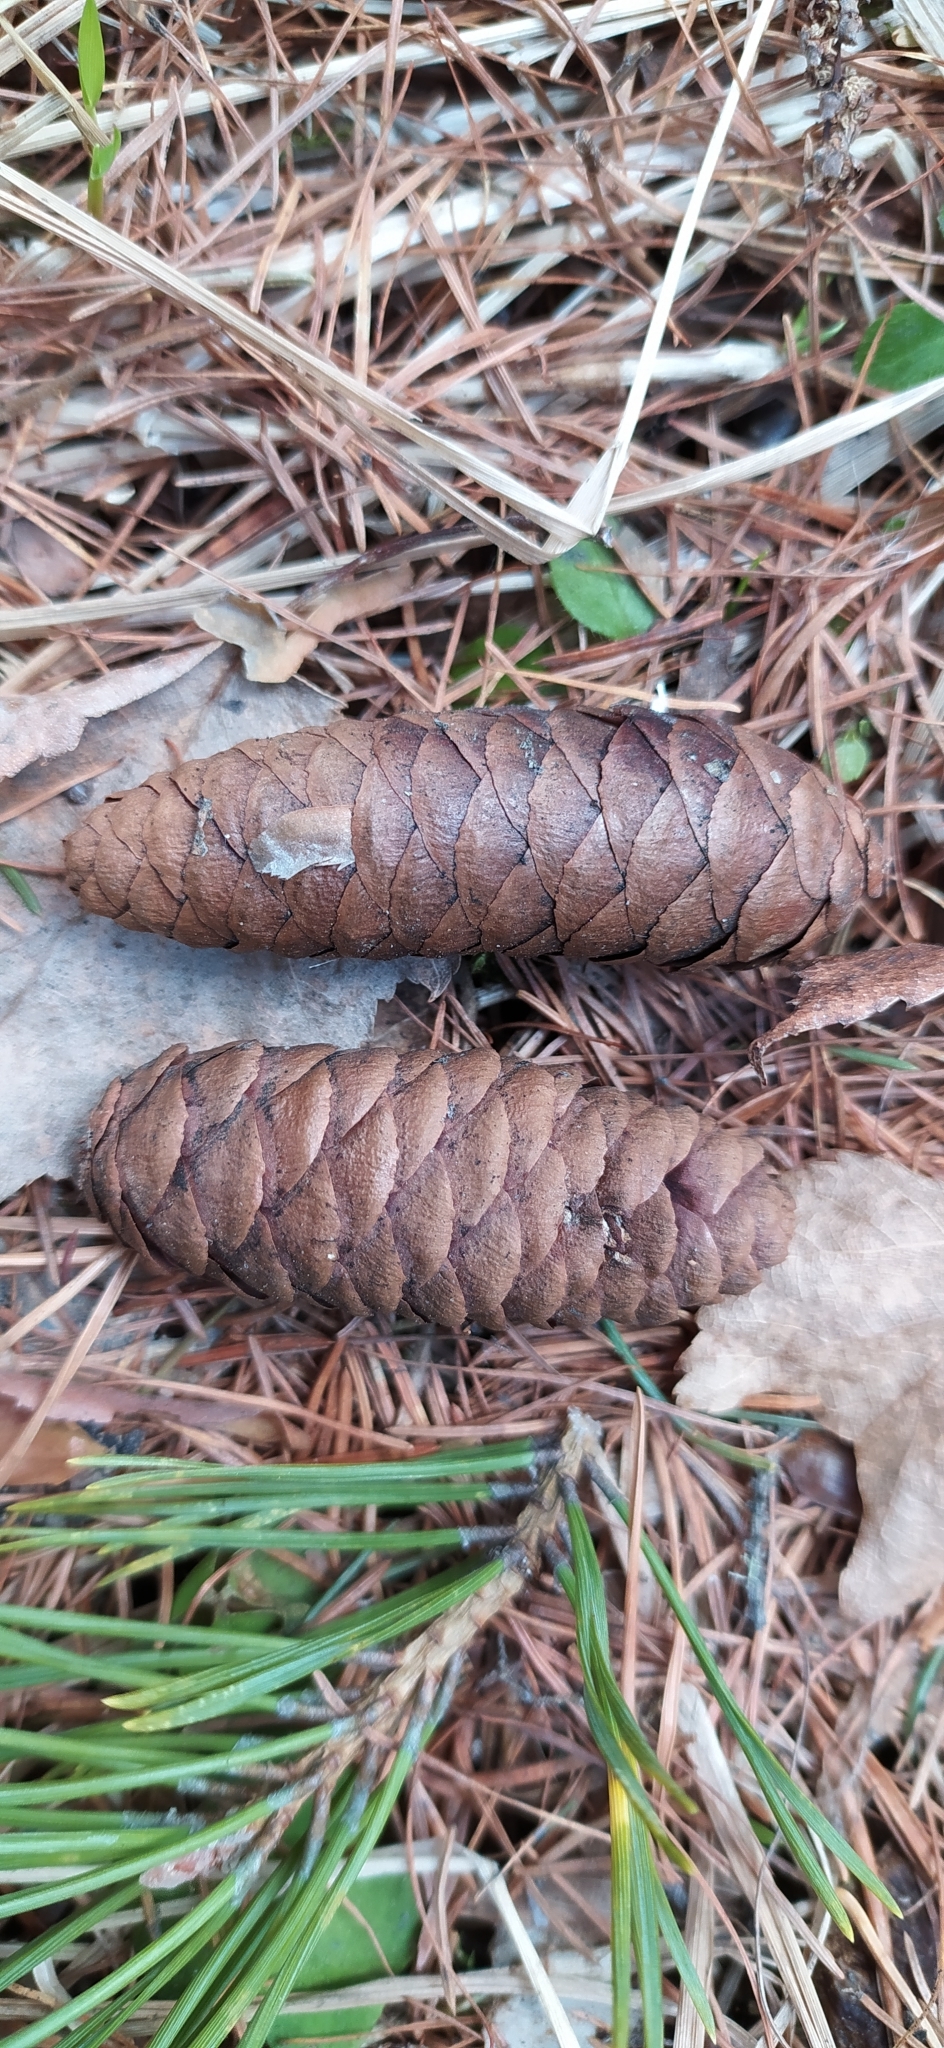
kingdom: Plantae
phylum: Tracheophyta
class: Pinopsida
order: Pinales
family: Pinaceae
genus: Picea
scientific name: Picea obovata
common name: Siberian spruce
